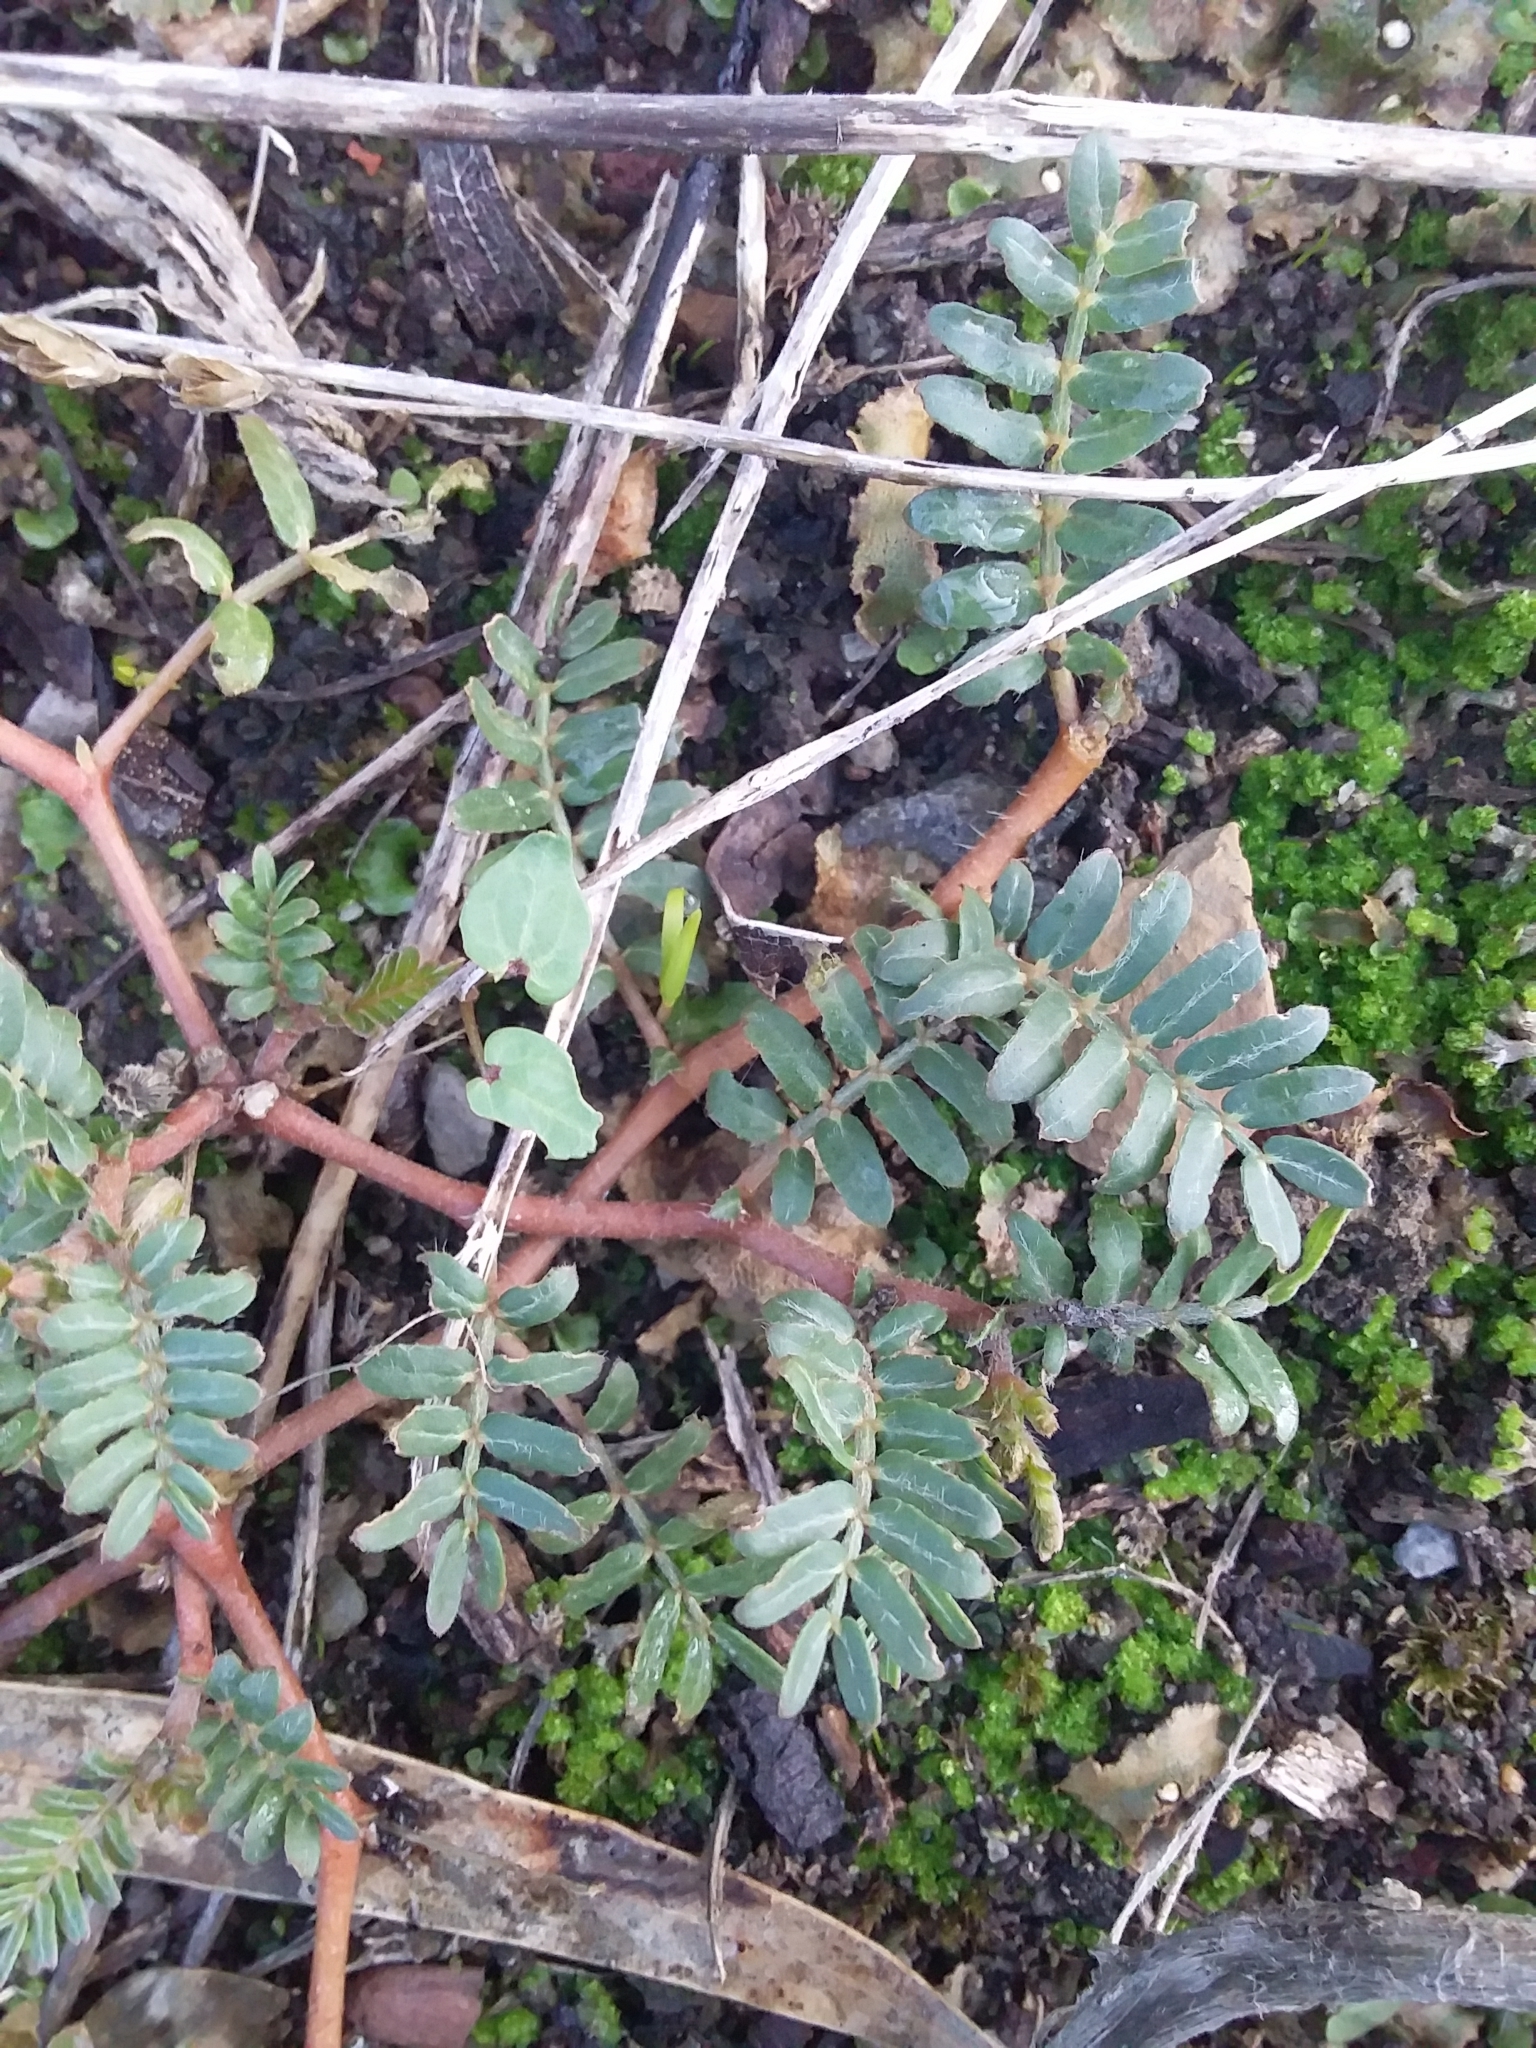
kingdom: Plantae
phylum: Tracheophyta
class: Magnoliopsida
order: Zygophyllales
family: Zygophyllaceae
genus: Tribulus
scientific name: Tribulus terrestris
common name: Puncturevine
